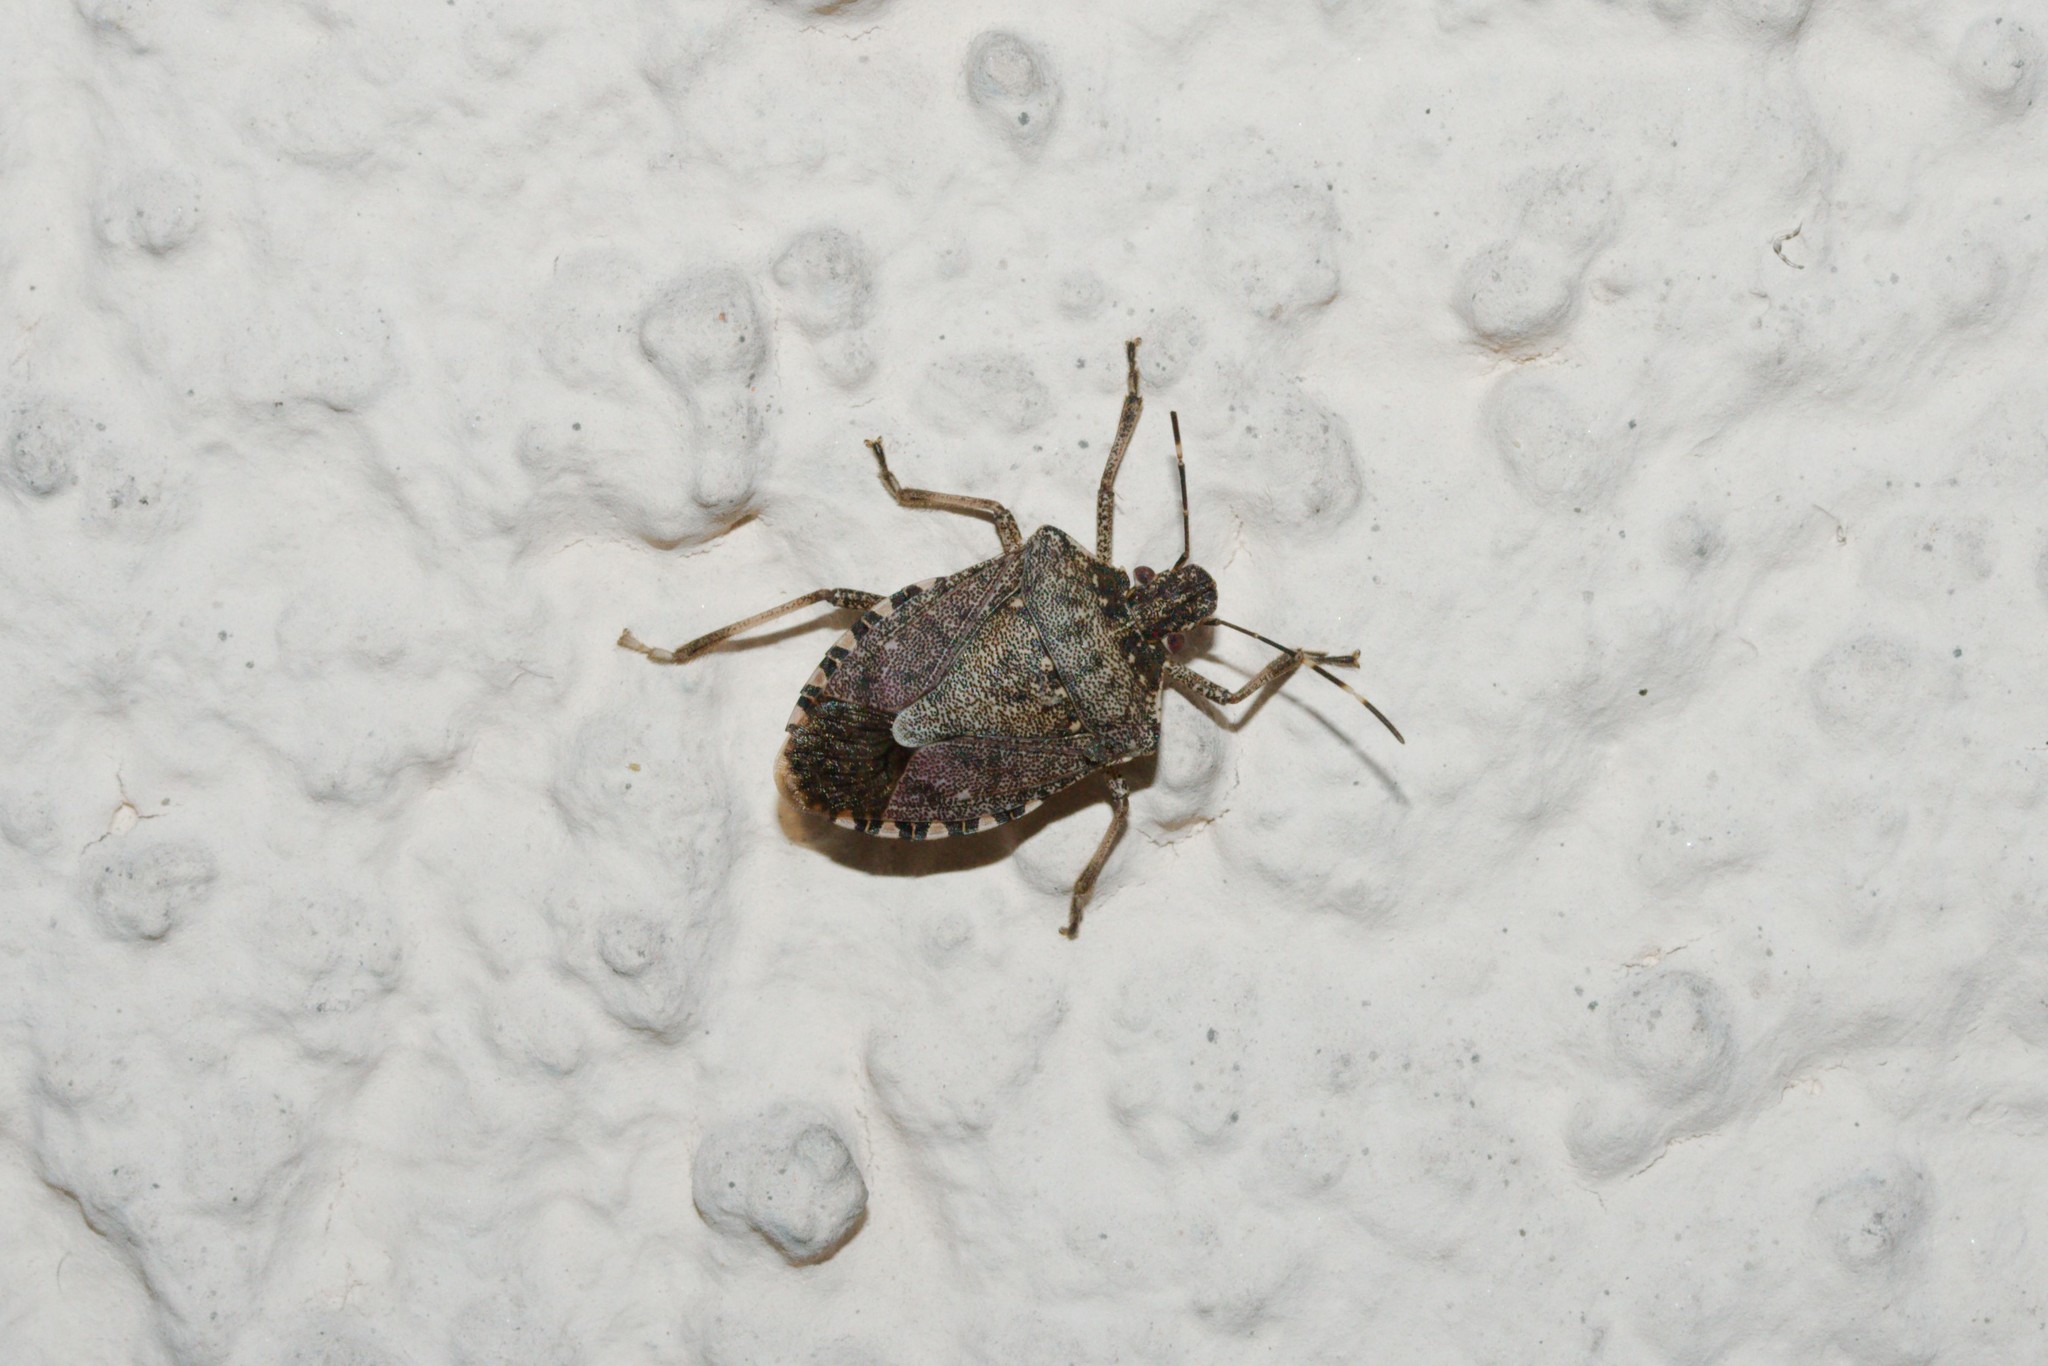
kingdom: Animalia
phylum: Arthropoda
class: Insecta
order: Hemiptera
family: Pentatomidae
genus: Halyomorpha
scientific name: Halyomorpha halys
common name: Brown marmorated stink bug
